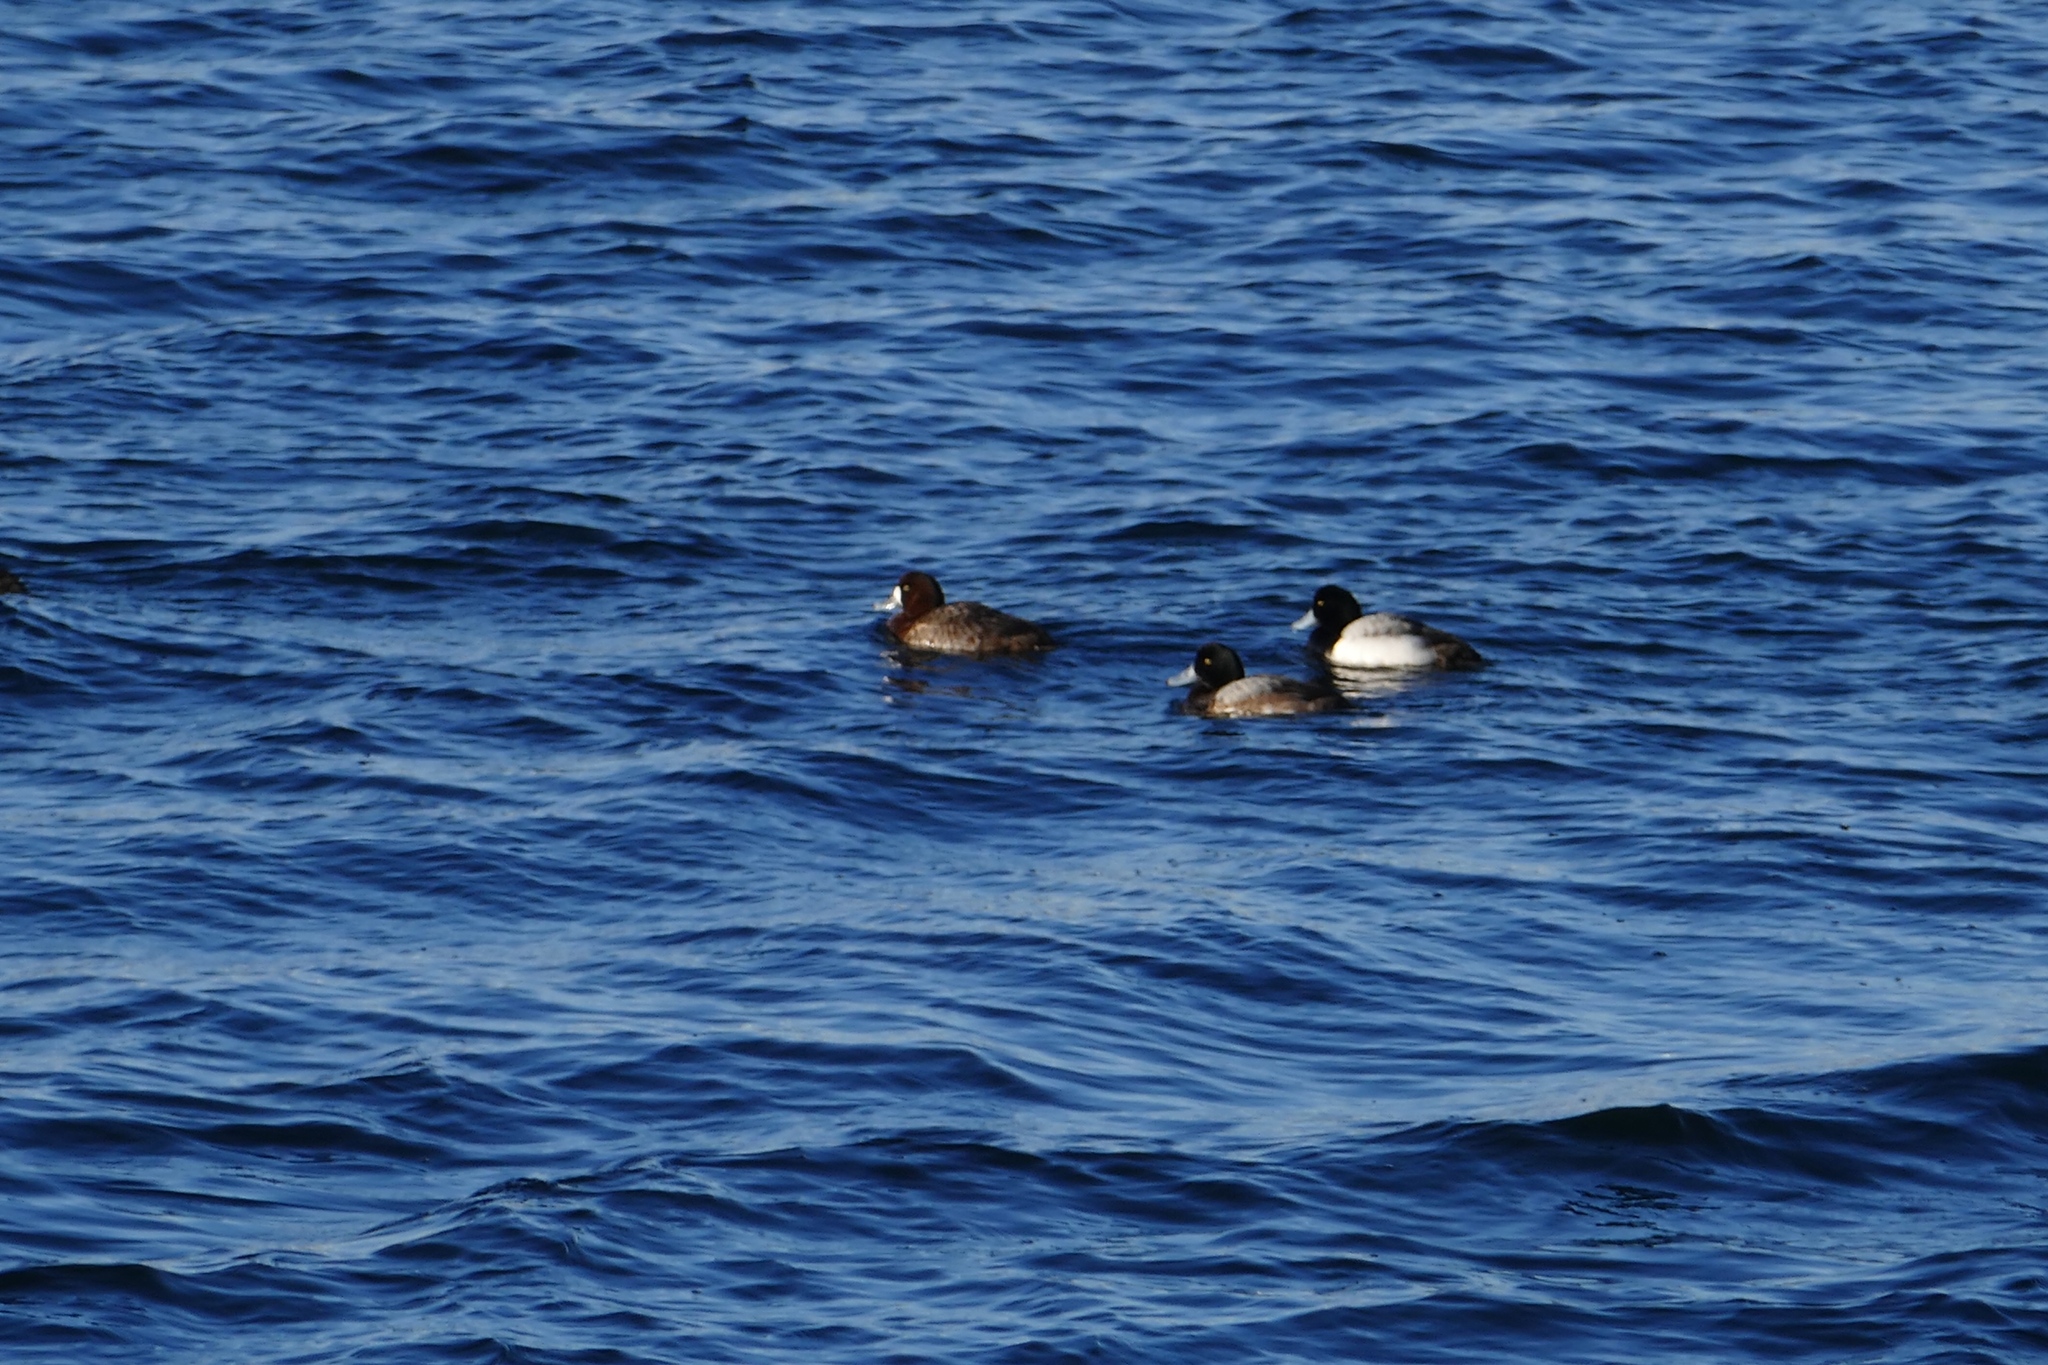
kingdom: Animalia
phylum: Chordata
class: Aves
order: Anseriformes
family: Anatidae
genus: Aythya
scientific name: Aythya marila
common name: Greater scaup
